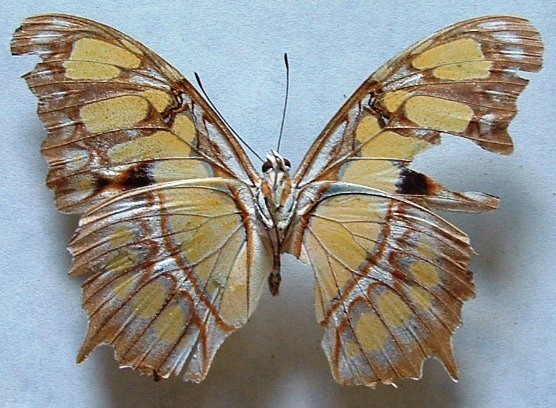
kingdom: Animalia
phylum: Arthropoda
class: Insecta
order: Lepidoptera
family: Nymphalidae
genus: Siproeta
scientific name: Siproeta stelenes
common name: Malachite
